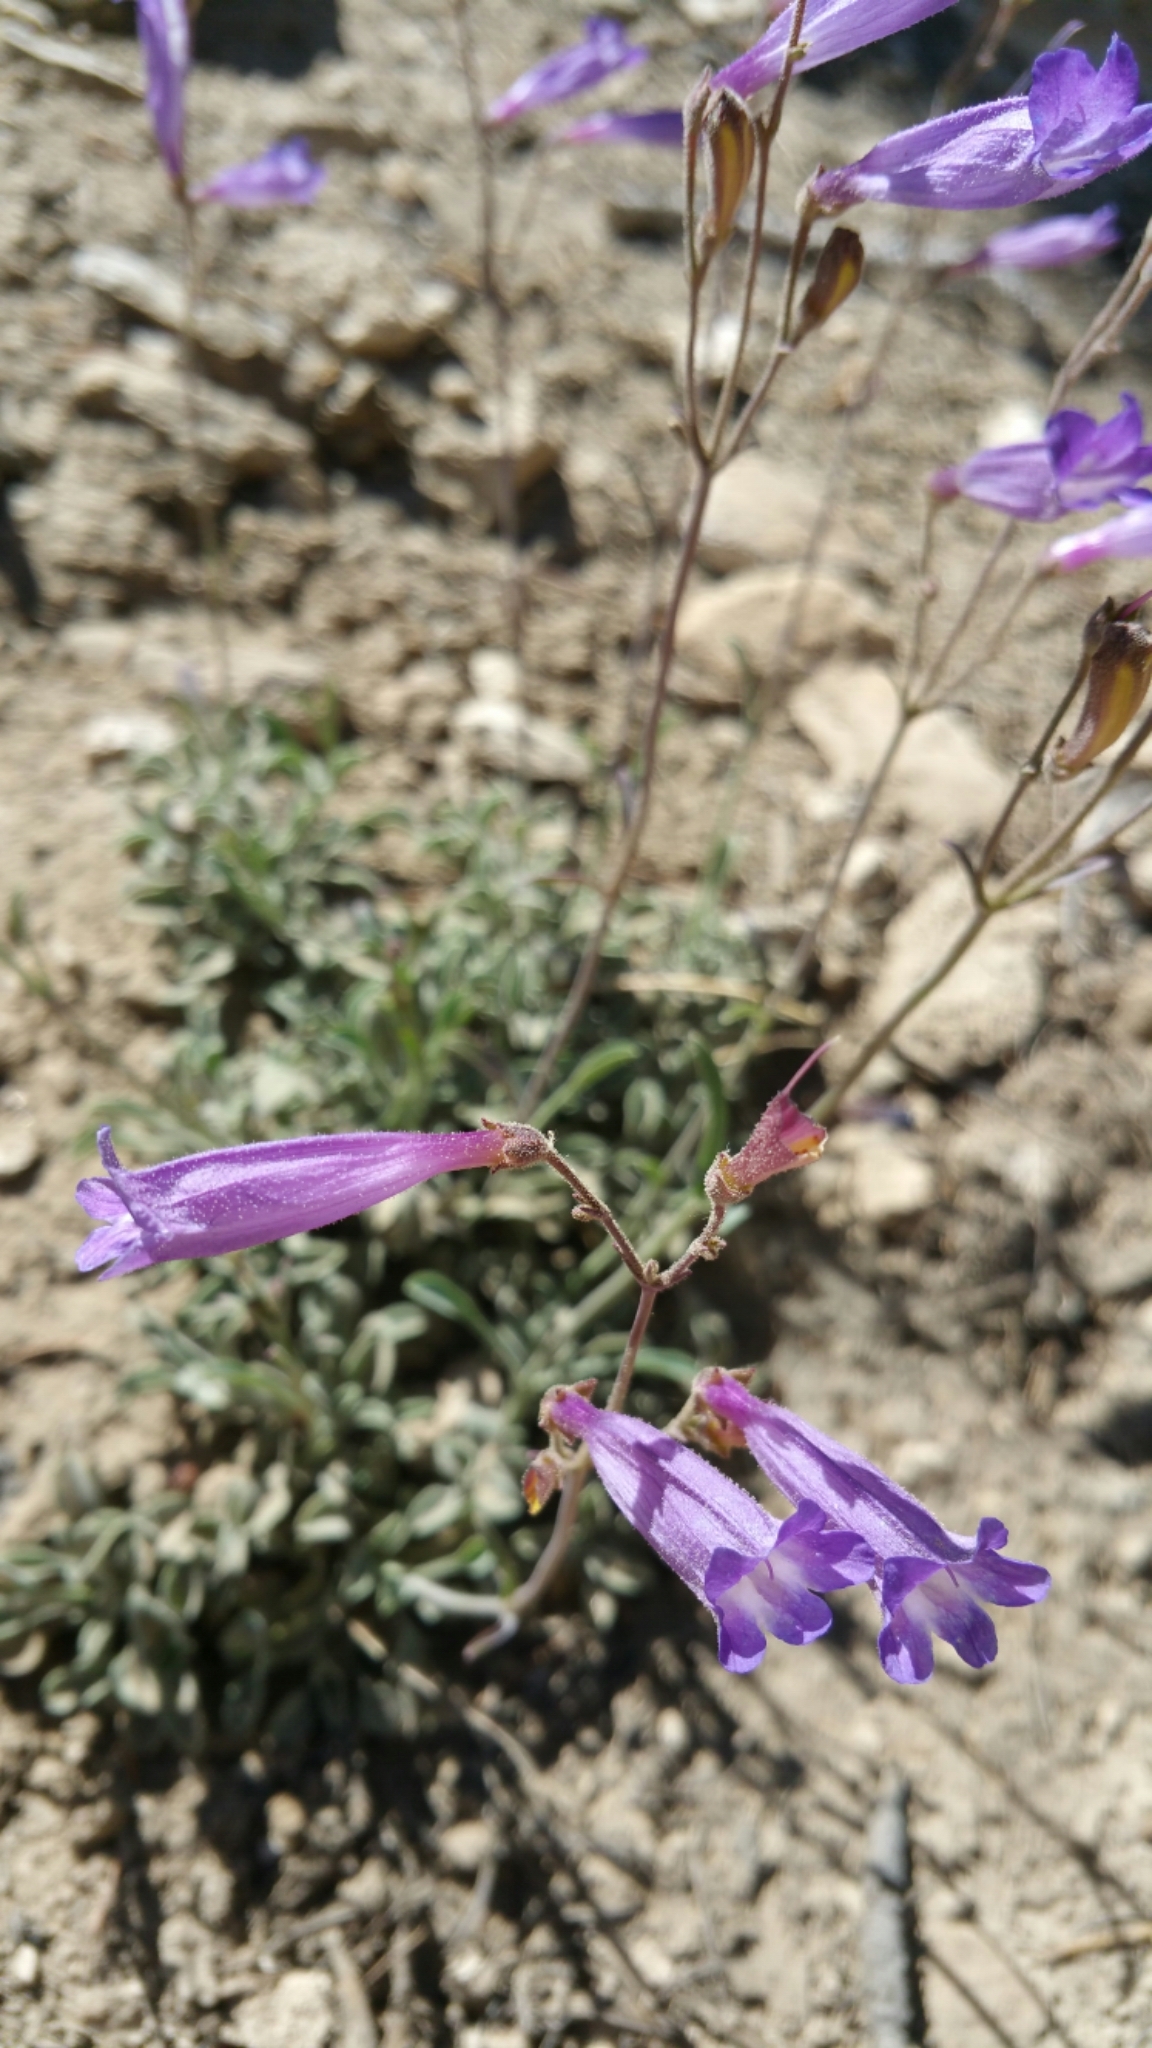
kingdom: Plantae
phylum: Tracheophyta
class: Magnoliopsida
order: Lamiales
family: Plantaginaceae
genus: Penstemon
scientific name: Penstemon scapoides
